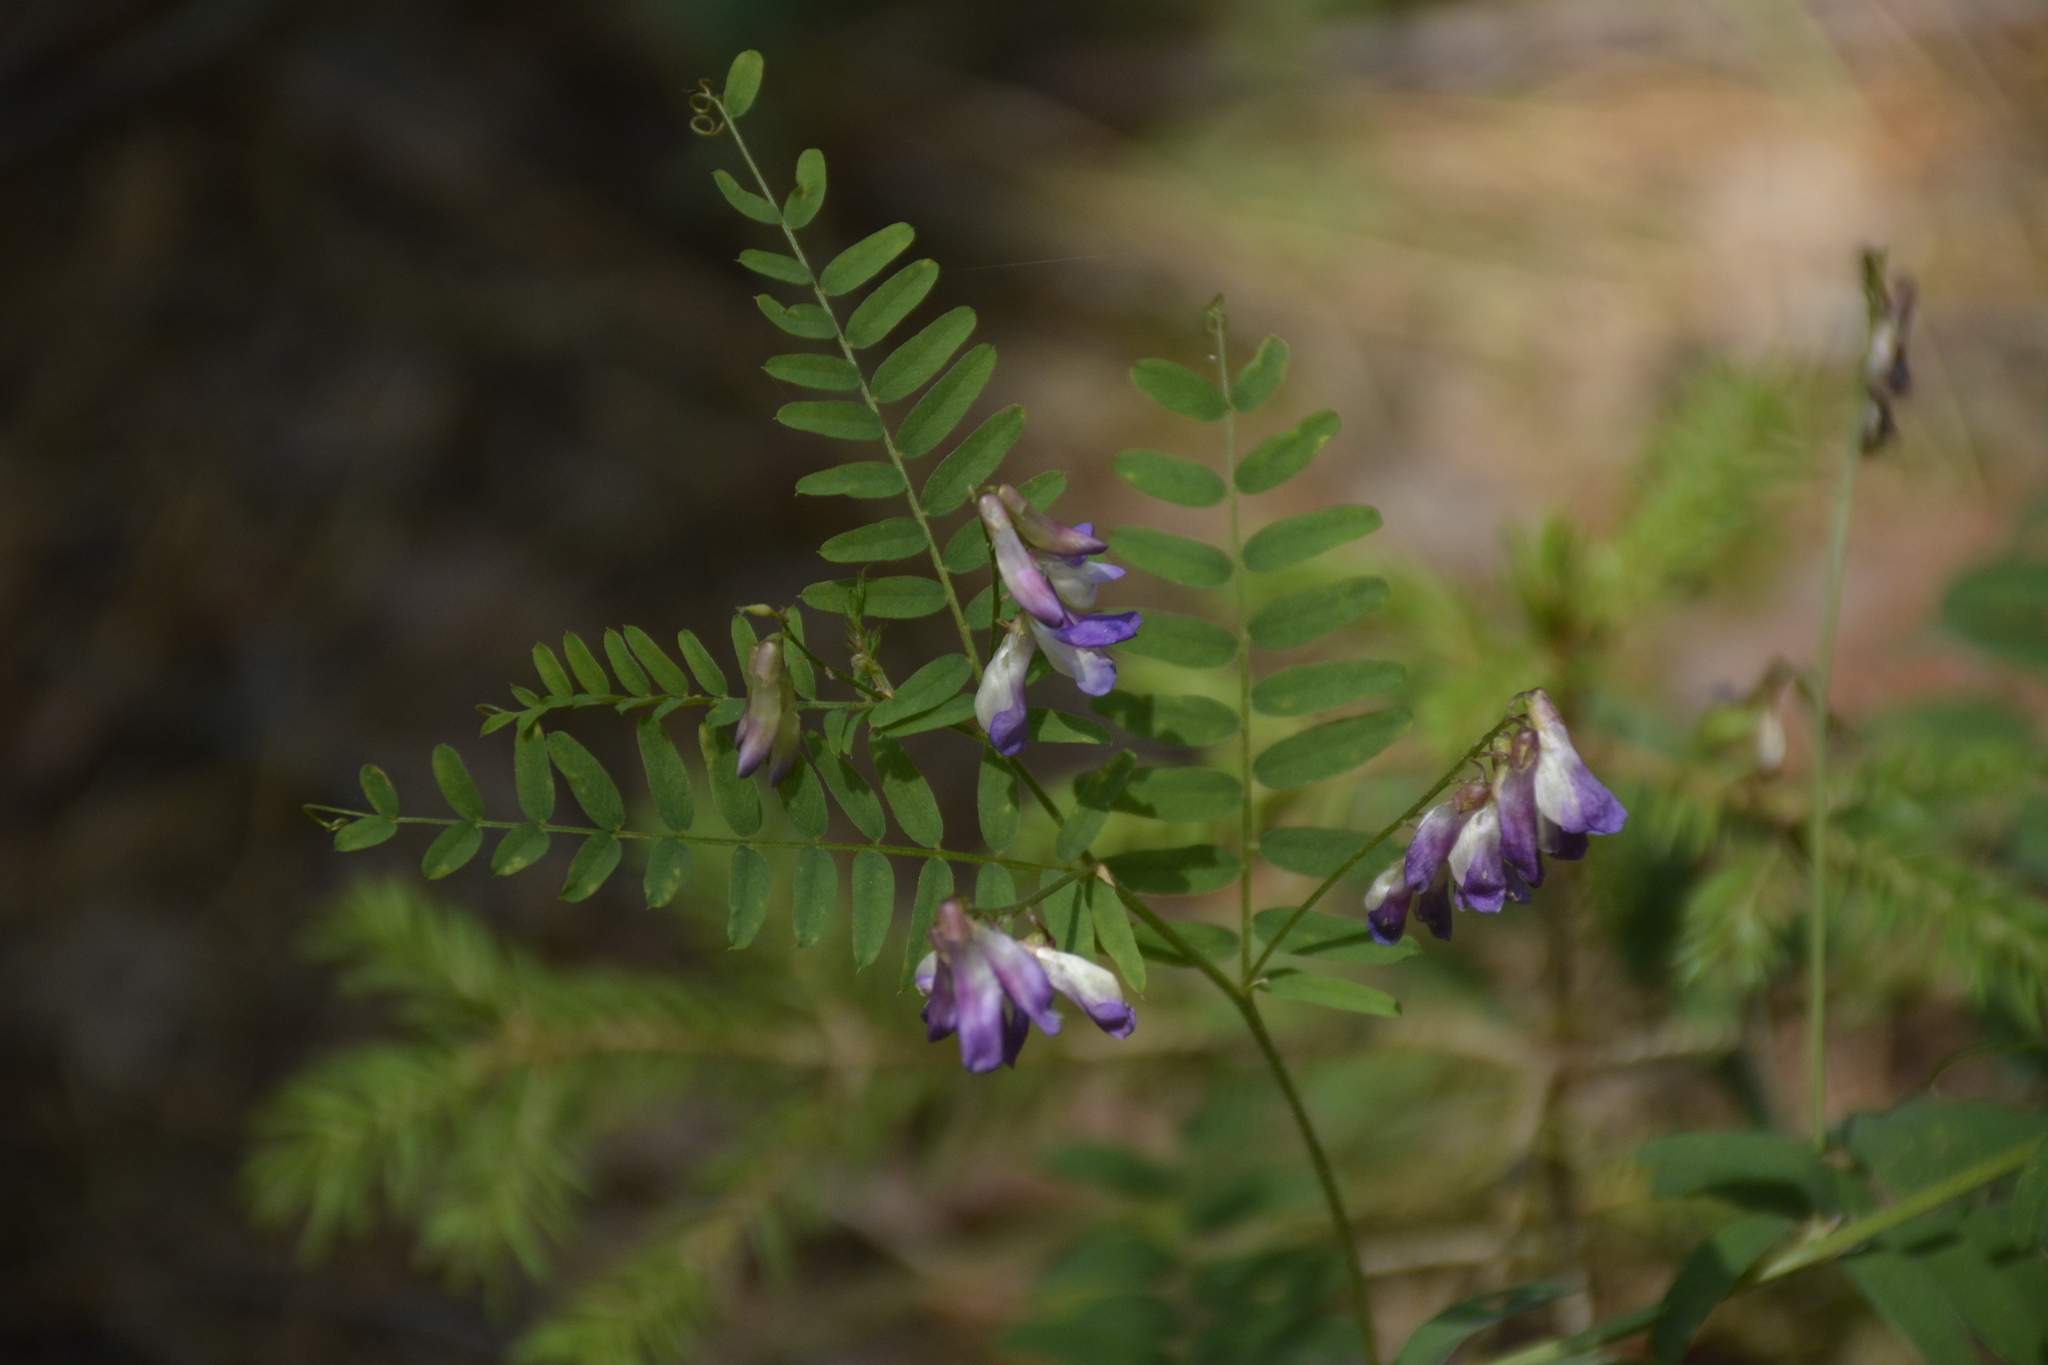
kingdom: Plantae
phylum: Tracheophyta
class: Magnoliopsida
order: Fabales
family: Fabaceae
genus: Vicia
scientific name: Vicia cassubica
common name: Danzig vetch
